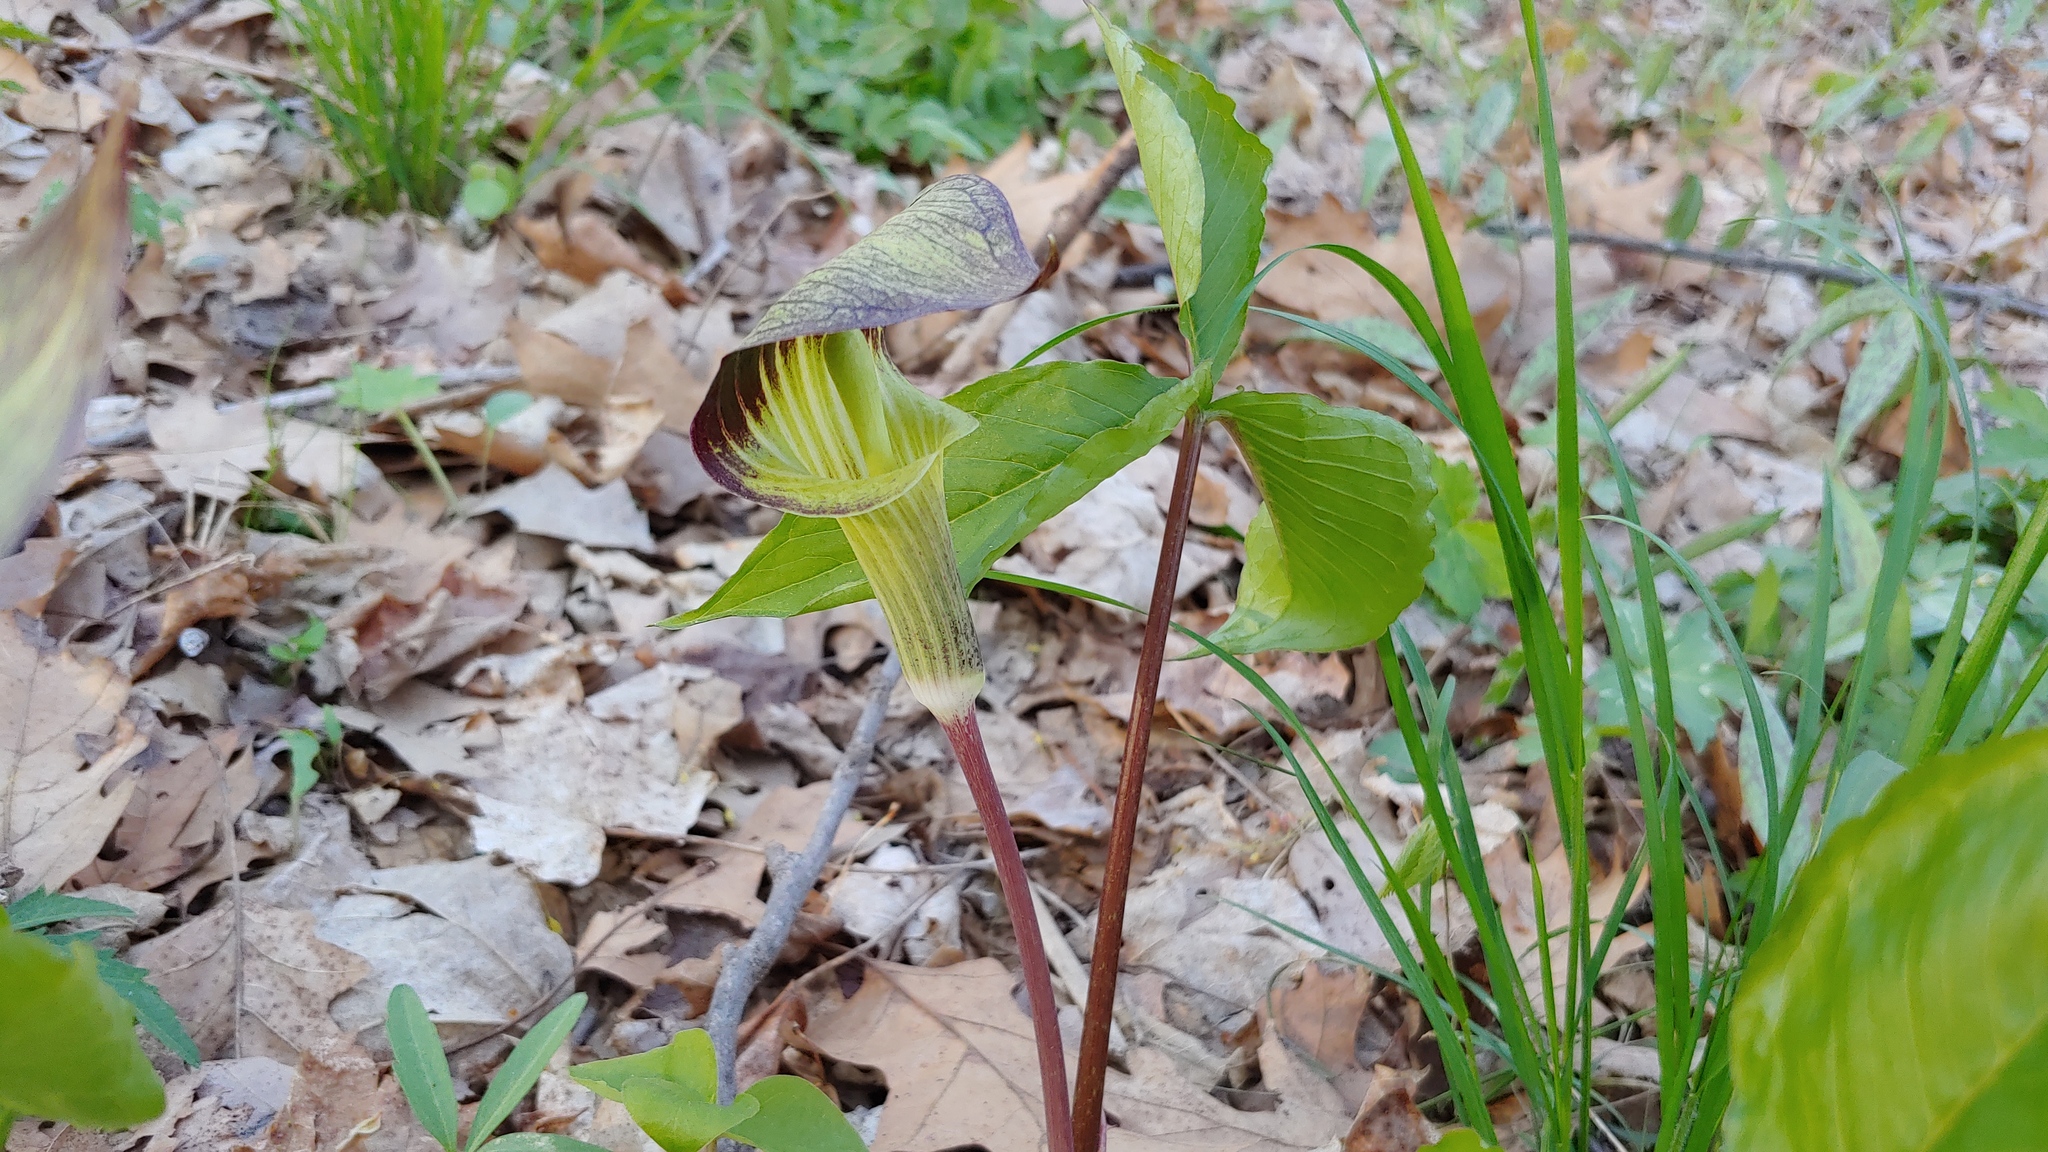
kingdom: Plantae
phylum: Tracheophyta
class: Liliopsida
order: Alismatales
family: Araceae
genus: Arisaema
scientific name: Arisaema triphyllum
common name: Jack-in-the-pulpit
